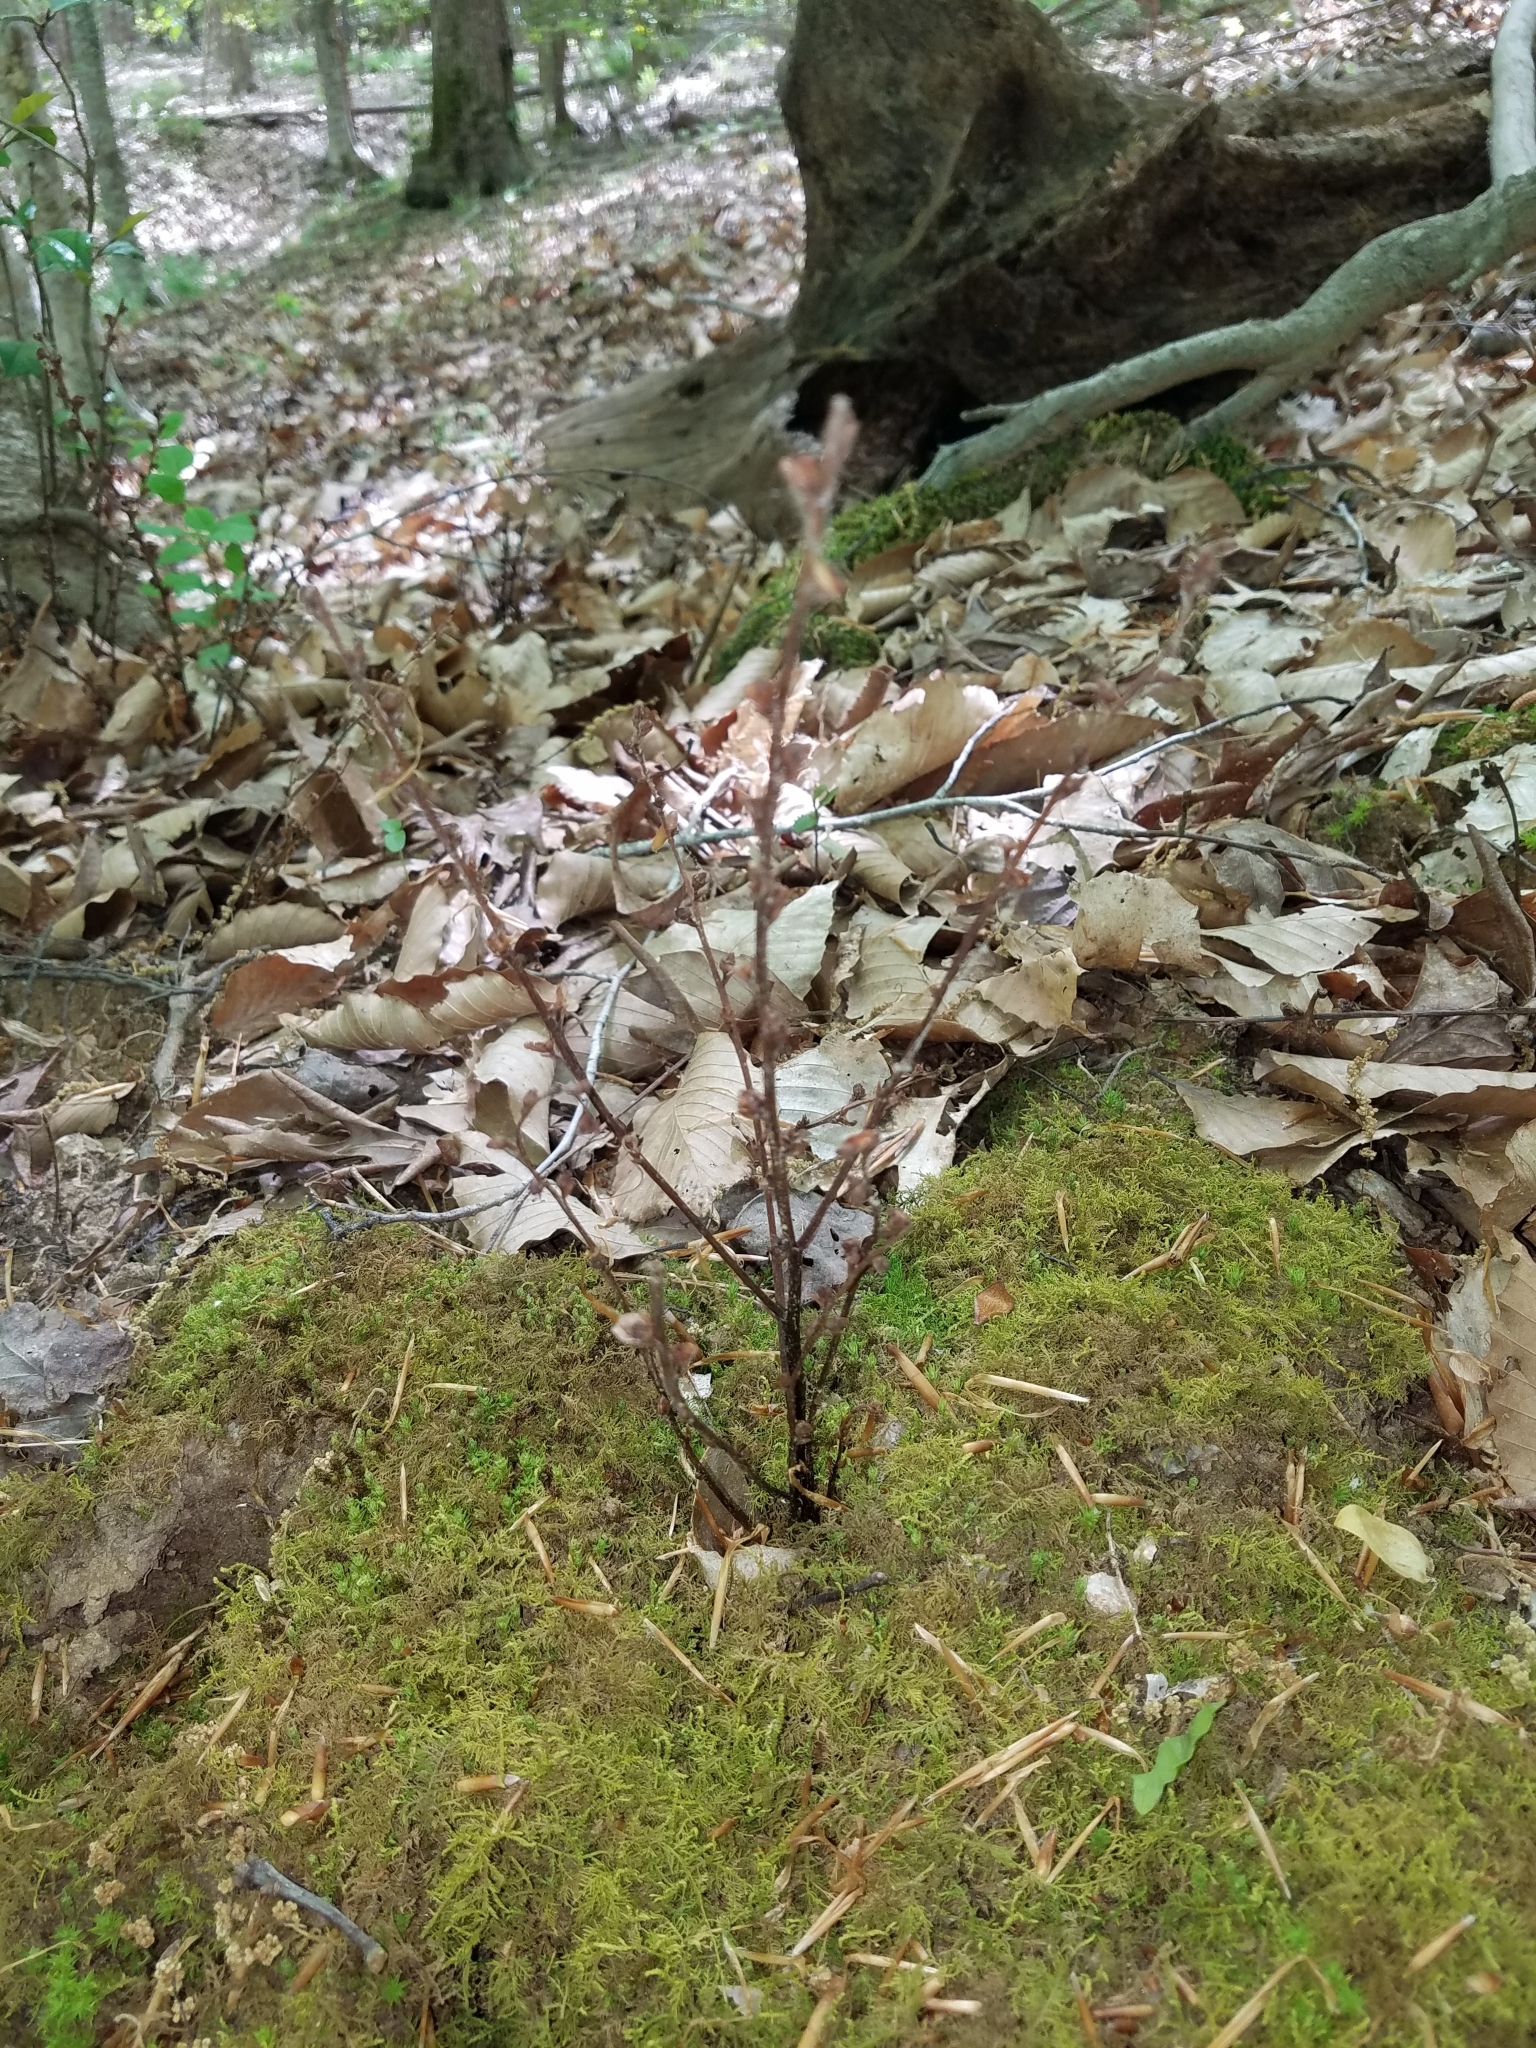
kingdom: Plantae
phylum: Tracheophyta
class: Magnoliopsida
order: Lamiales
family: Orobanchaceae
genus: Epifagus
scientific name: Epifagus virginiana
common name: Beechdrops
